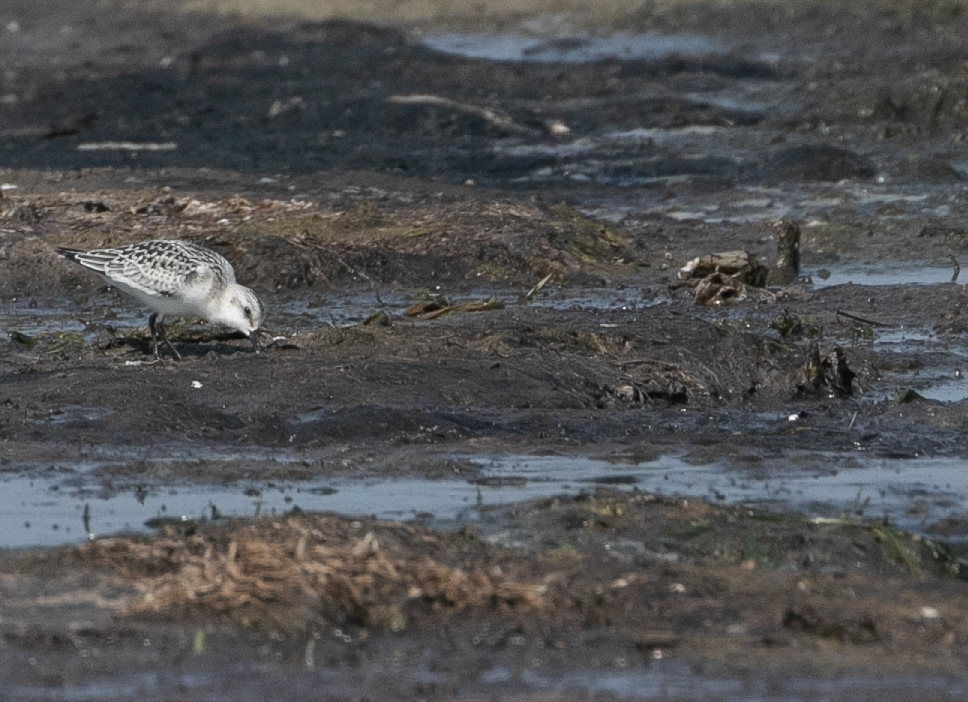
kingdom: Animalia
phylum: Chordata
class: Aves
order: Charadriiformes
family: Scolopacidae
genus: Calidris
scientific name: Calidris alba
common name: Sanderling
